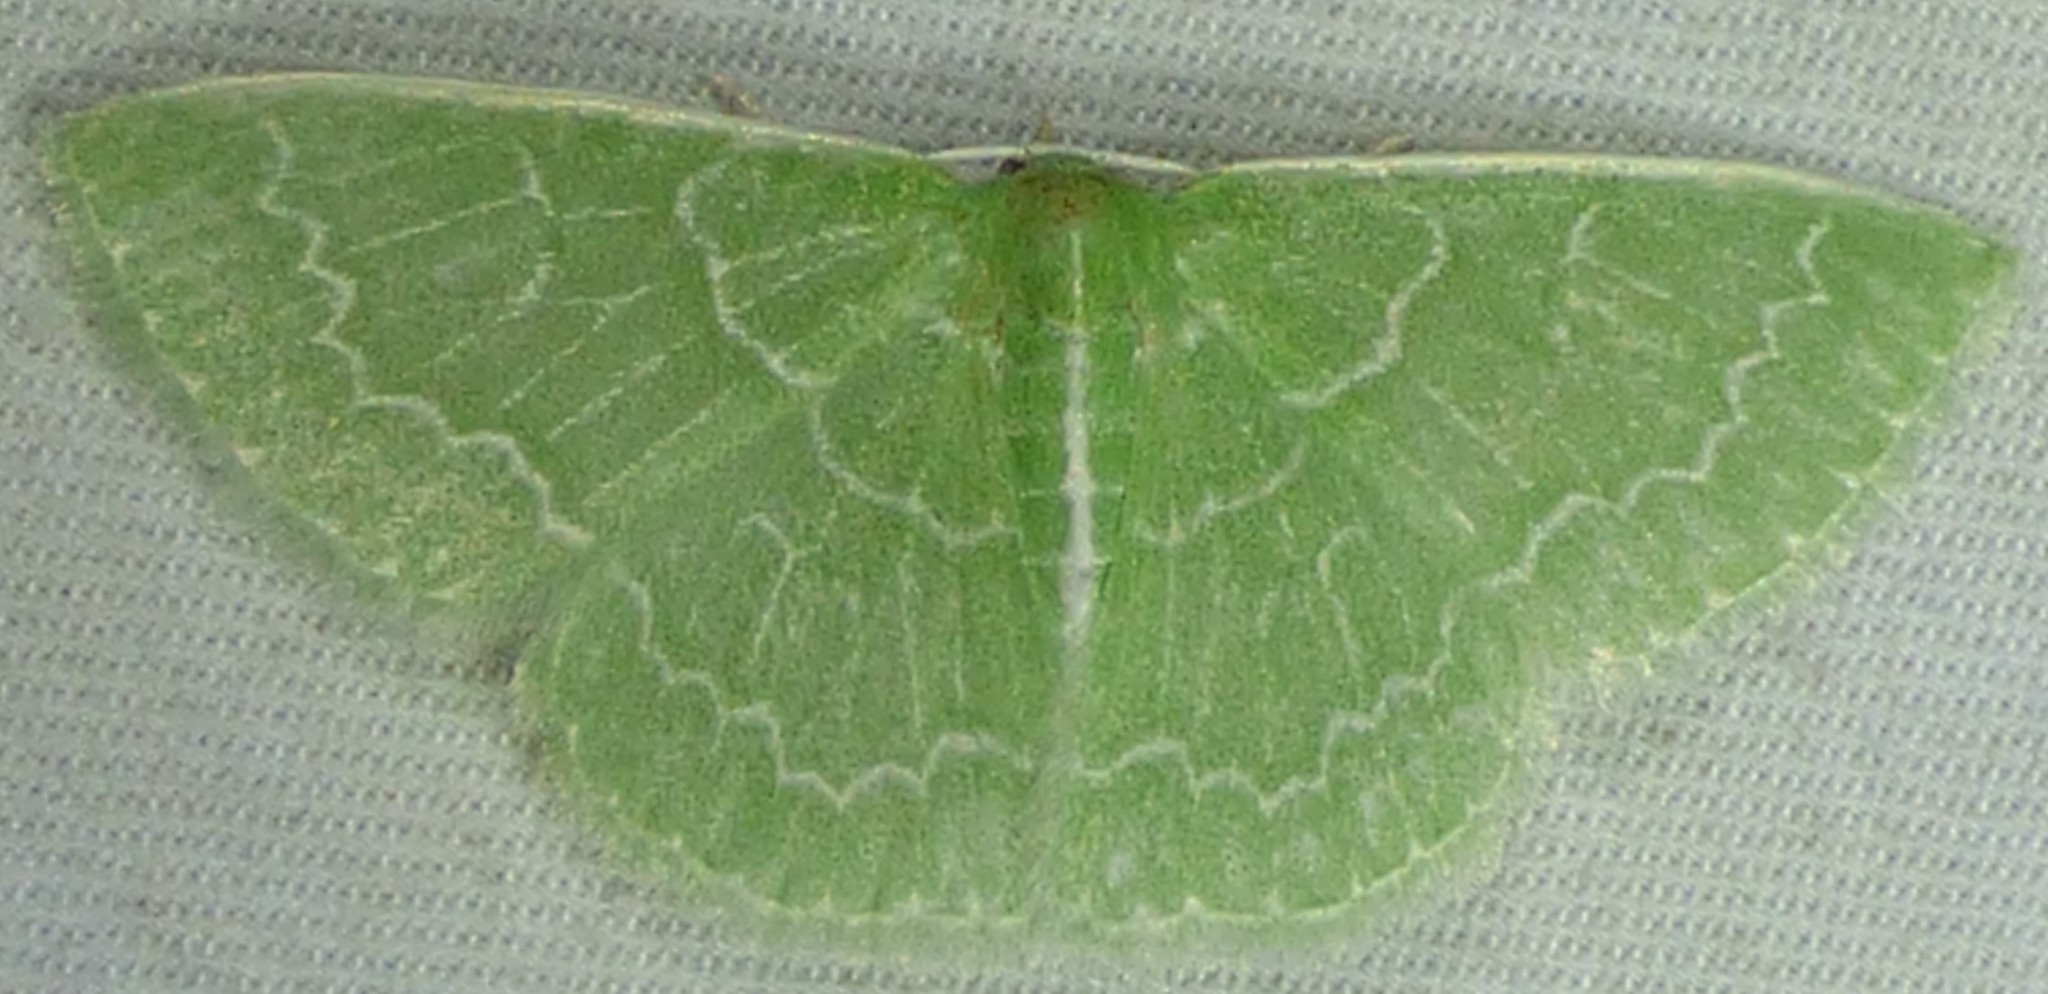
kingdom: Animalia
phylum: Arthropoda
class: Insecta
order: Lepidoptera
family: Geometridae
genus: Synchlora
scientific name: Synchlora frondaria
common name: Southern emerald
